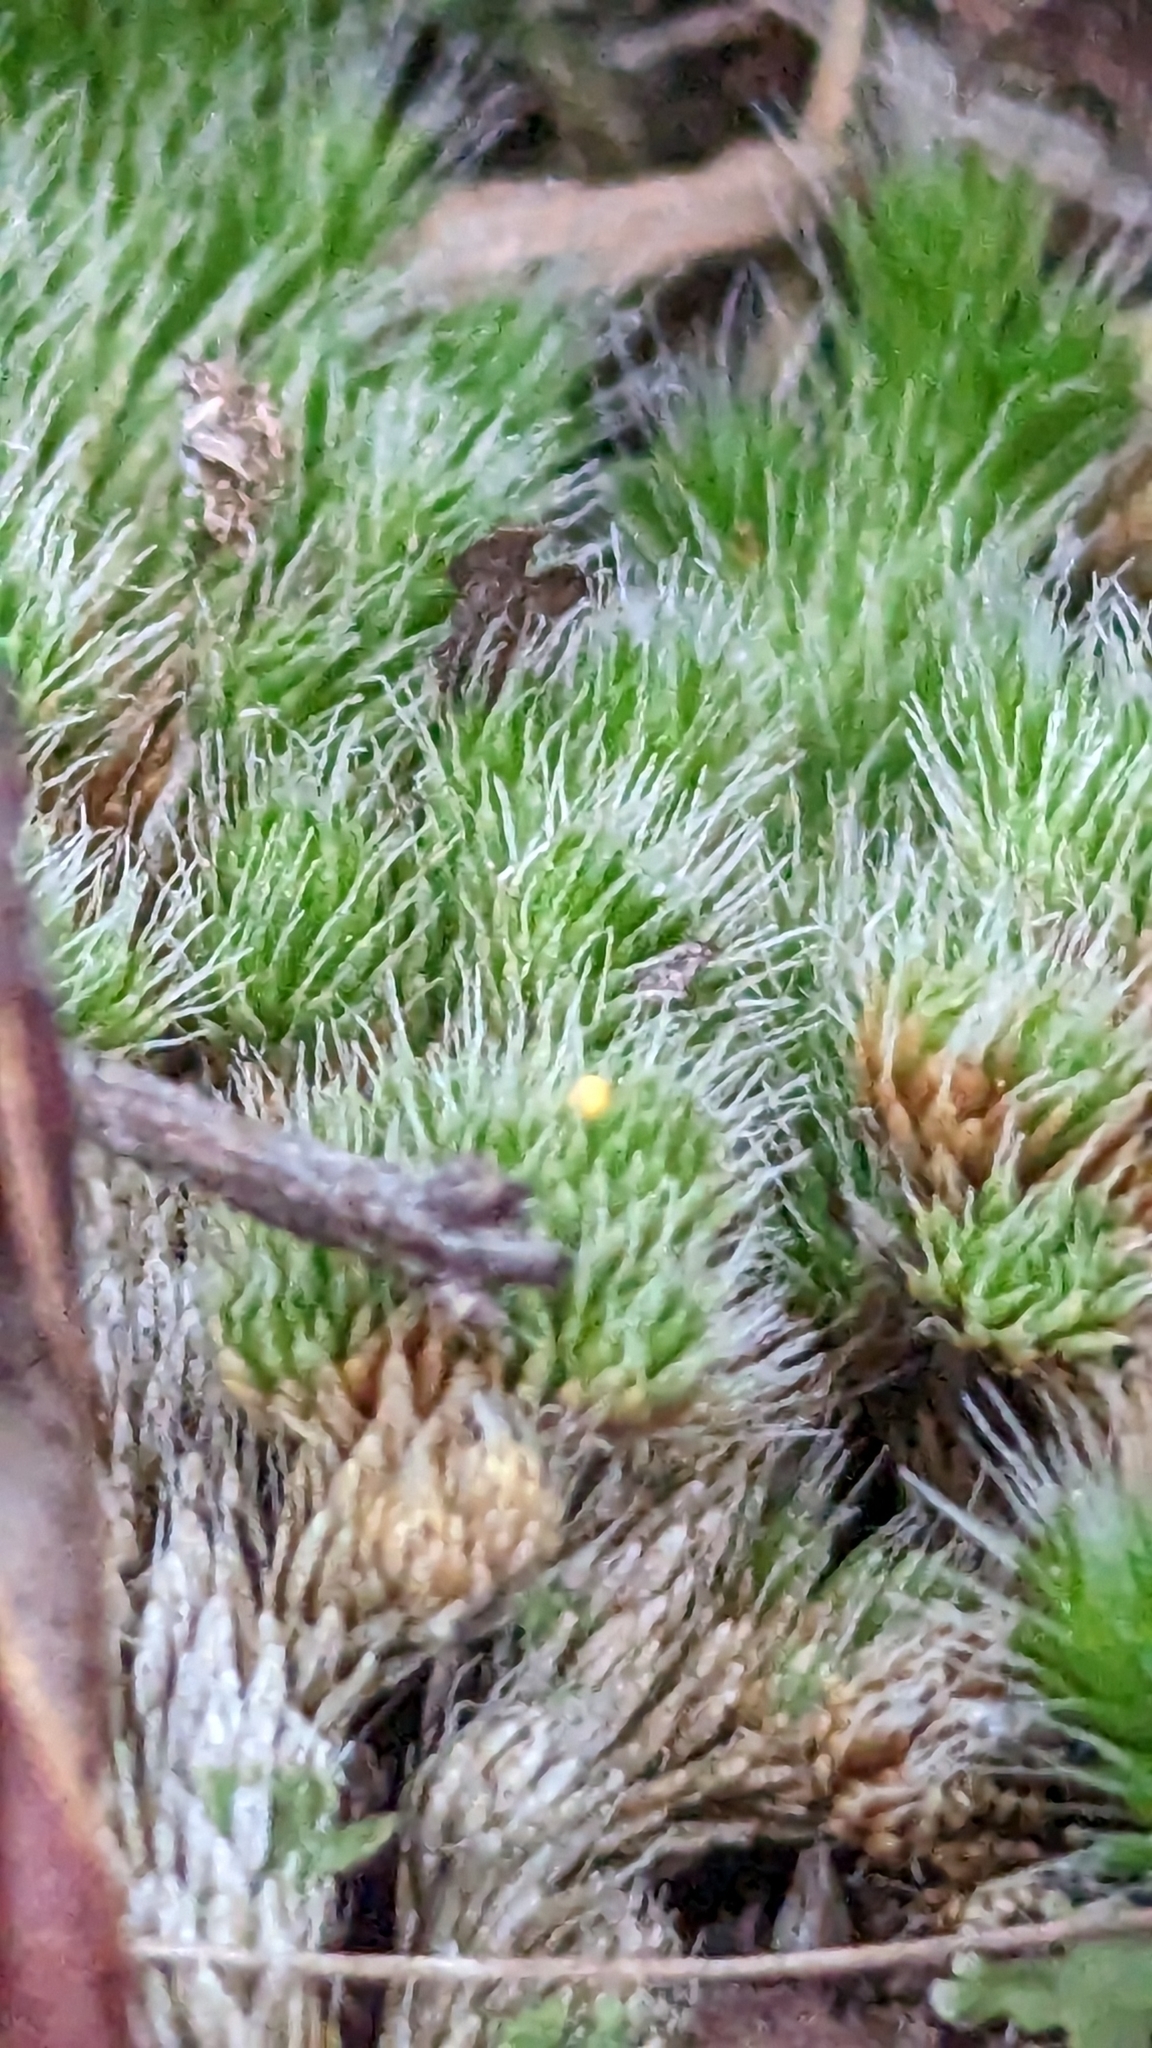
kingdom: Plantae
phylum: Tracheophyta
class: Lycopodiopsida
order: Selaginellales
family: Selaginellaceae
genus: Selaginella
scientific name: Selaginella densa
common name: Mountain spike-moss
